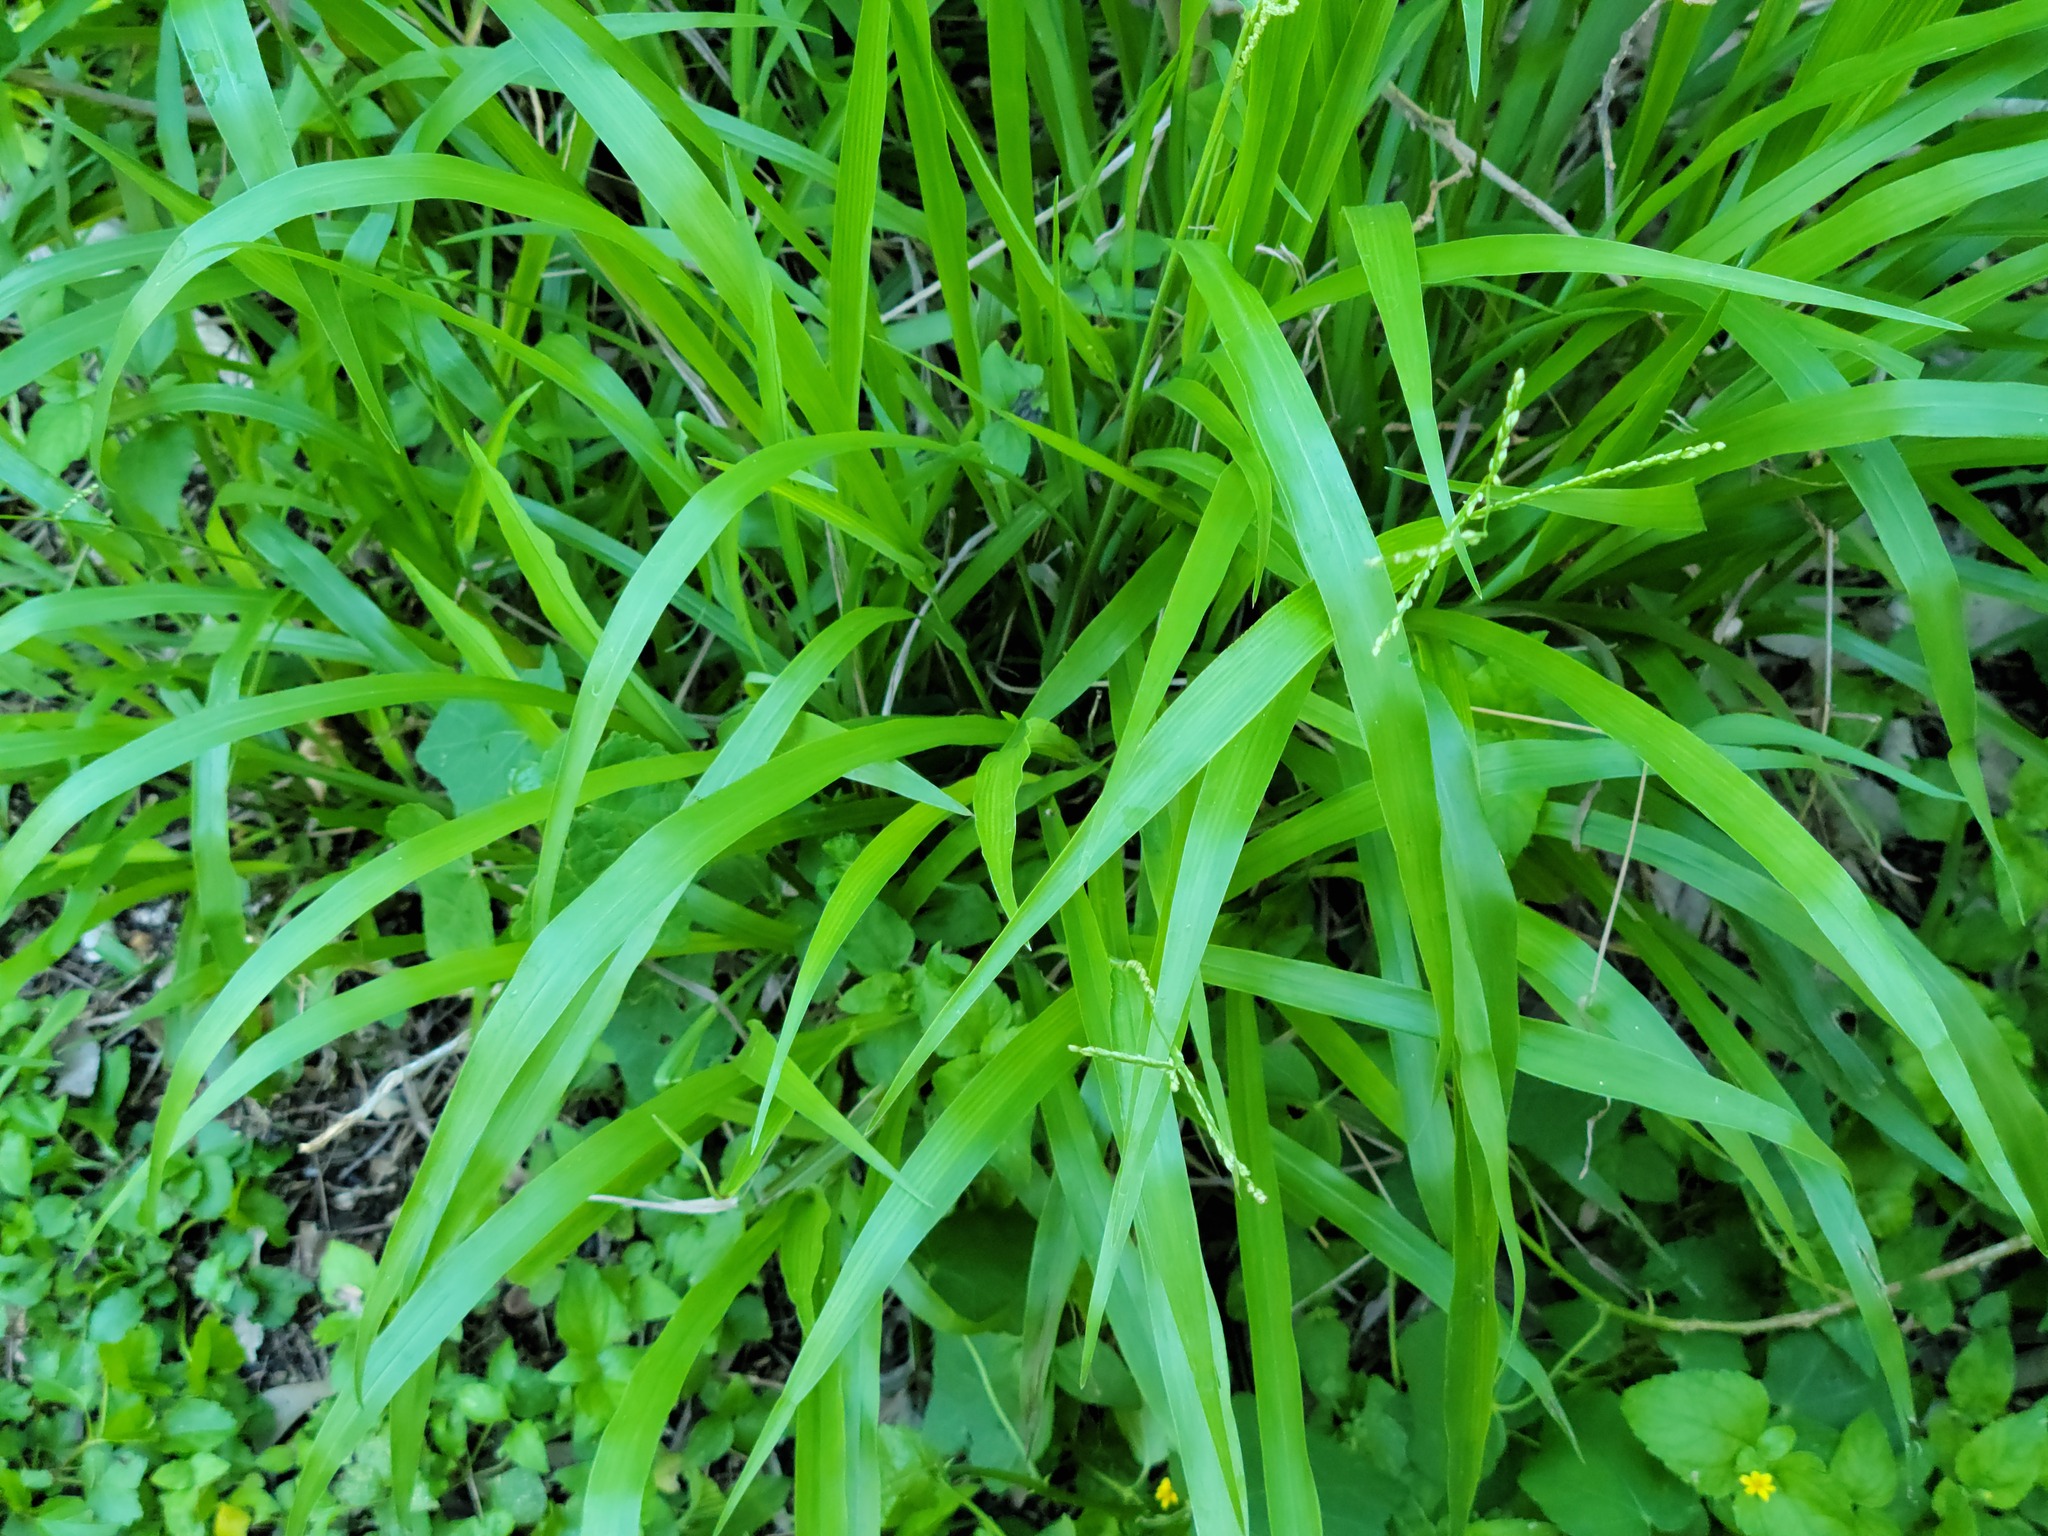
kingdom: Plantae
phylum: Tracheophyta
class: Liliopsida
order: Poales
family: Poaceae
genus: Paspalum
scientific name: Paspalum langei
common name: Rusty-seed paspalum
